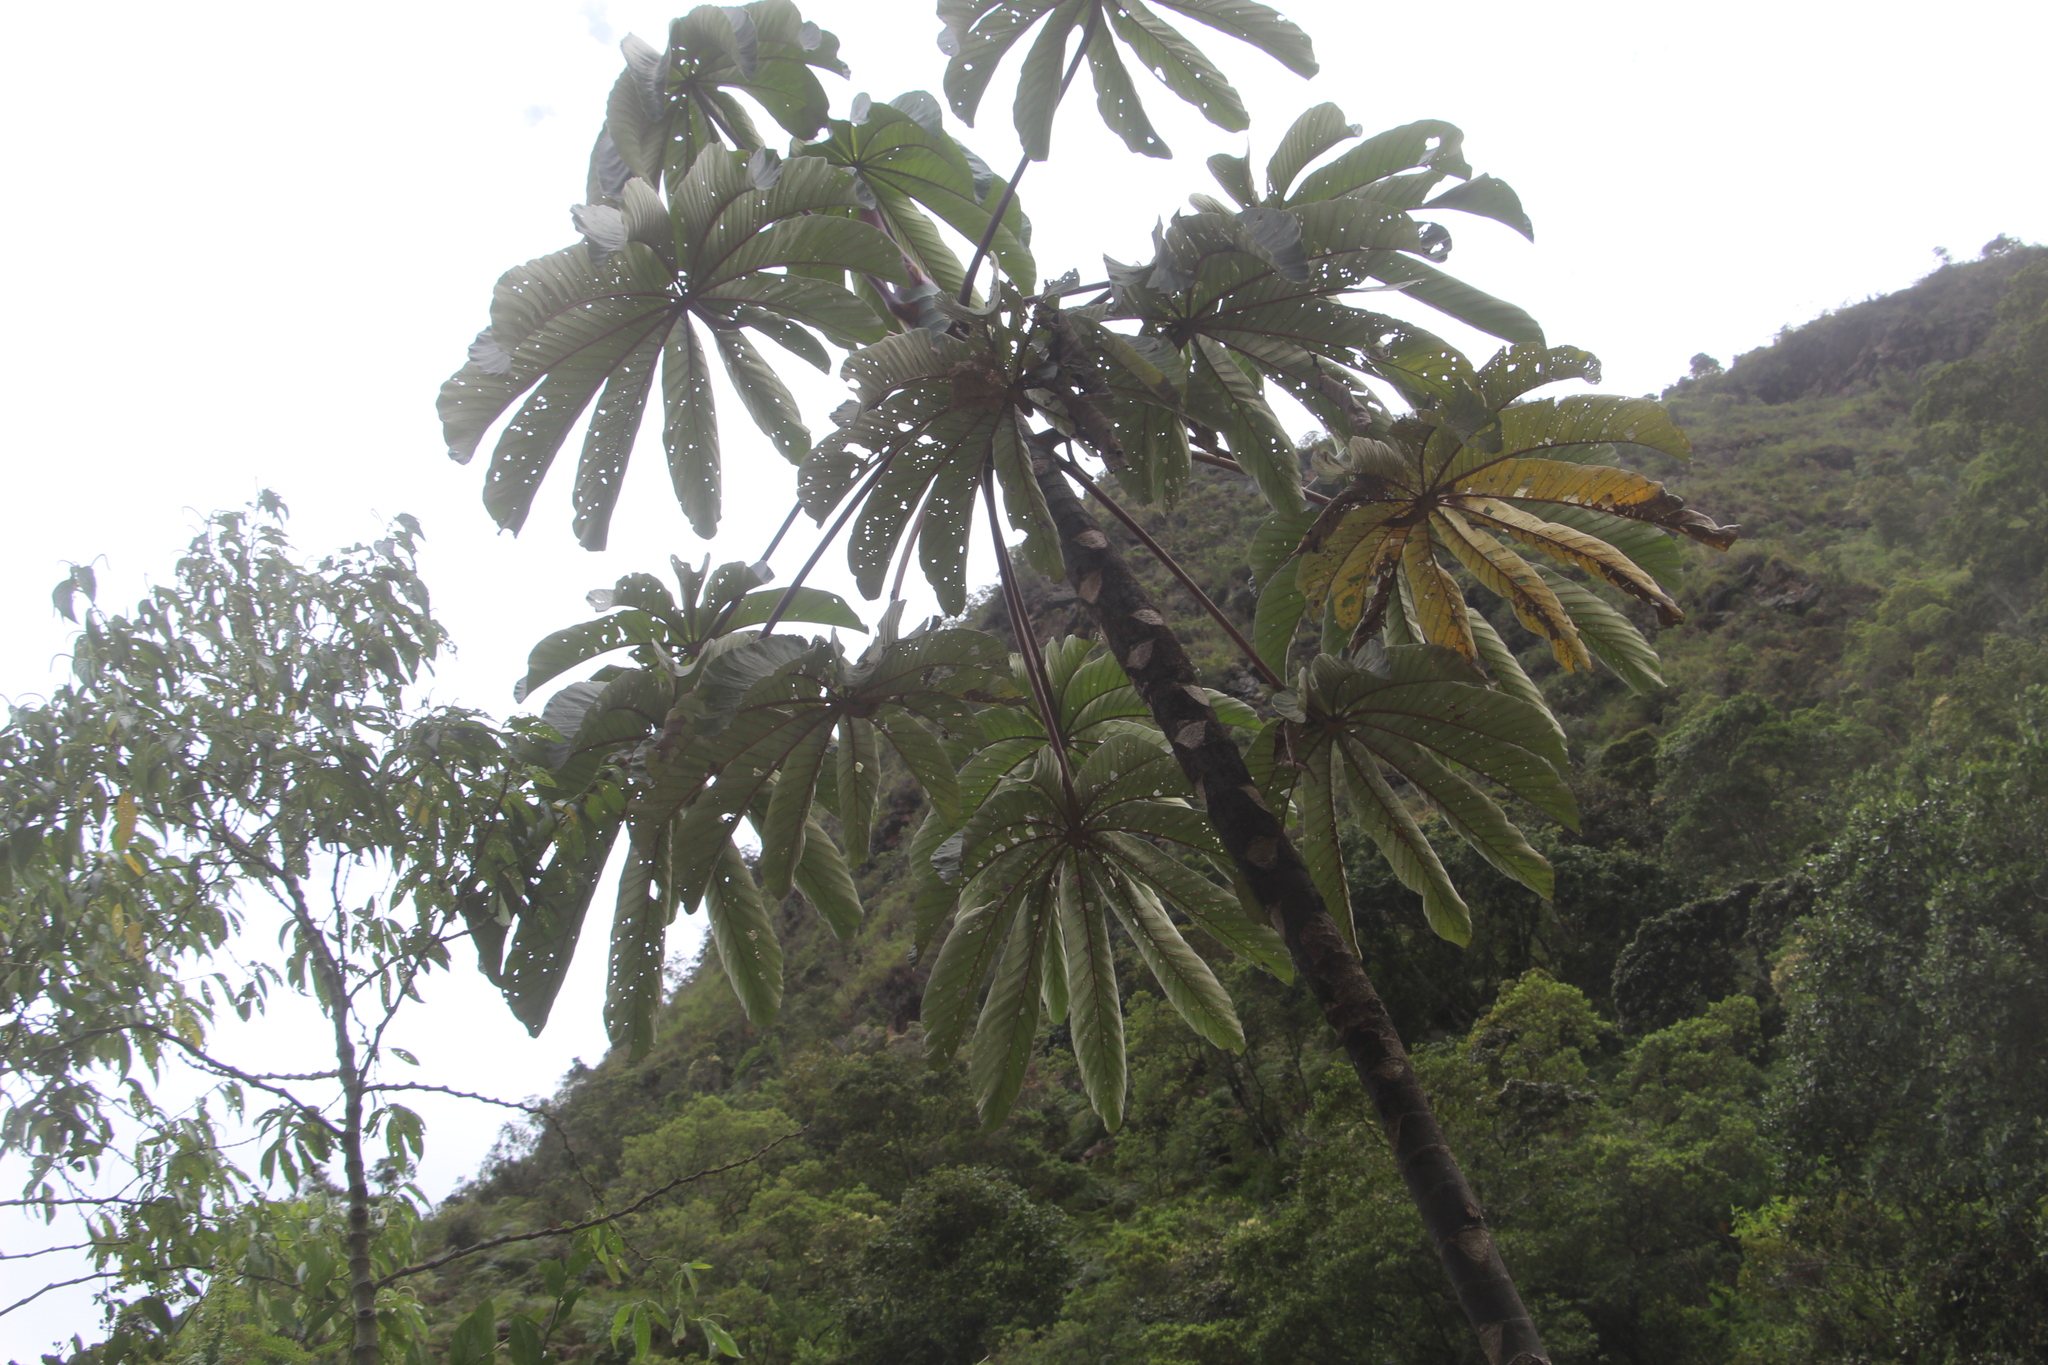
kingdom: Plantae
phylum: Tracheophyta
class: Magnoliopsida
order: Rosales
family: Urticaceae
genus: Cecropia
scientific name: Cecropia angustifolia
